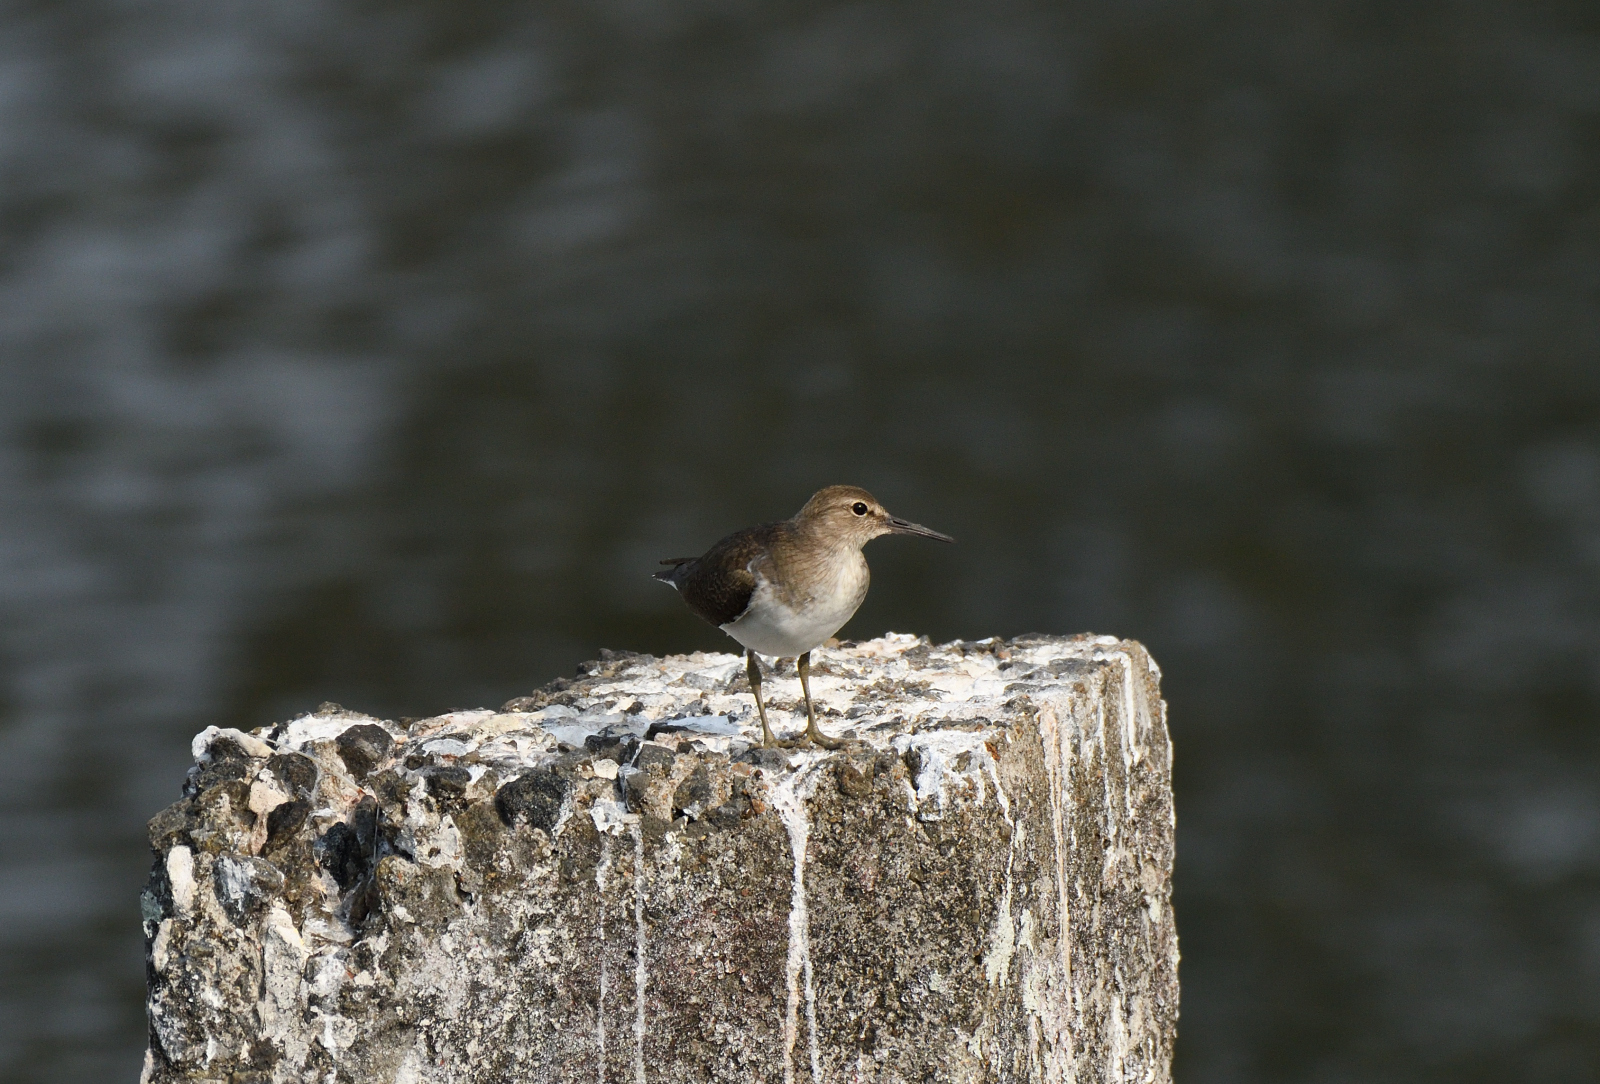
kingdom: Animalia
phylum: Chordata
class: Aves
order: Charadriiformes
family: Scolopacidae
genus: Actitis
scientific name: Actitis hypoleucos
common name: Common sandpiper
